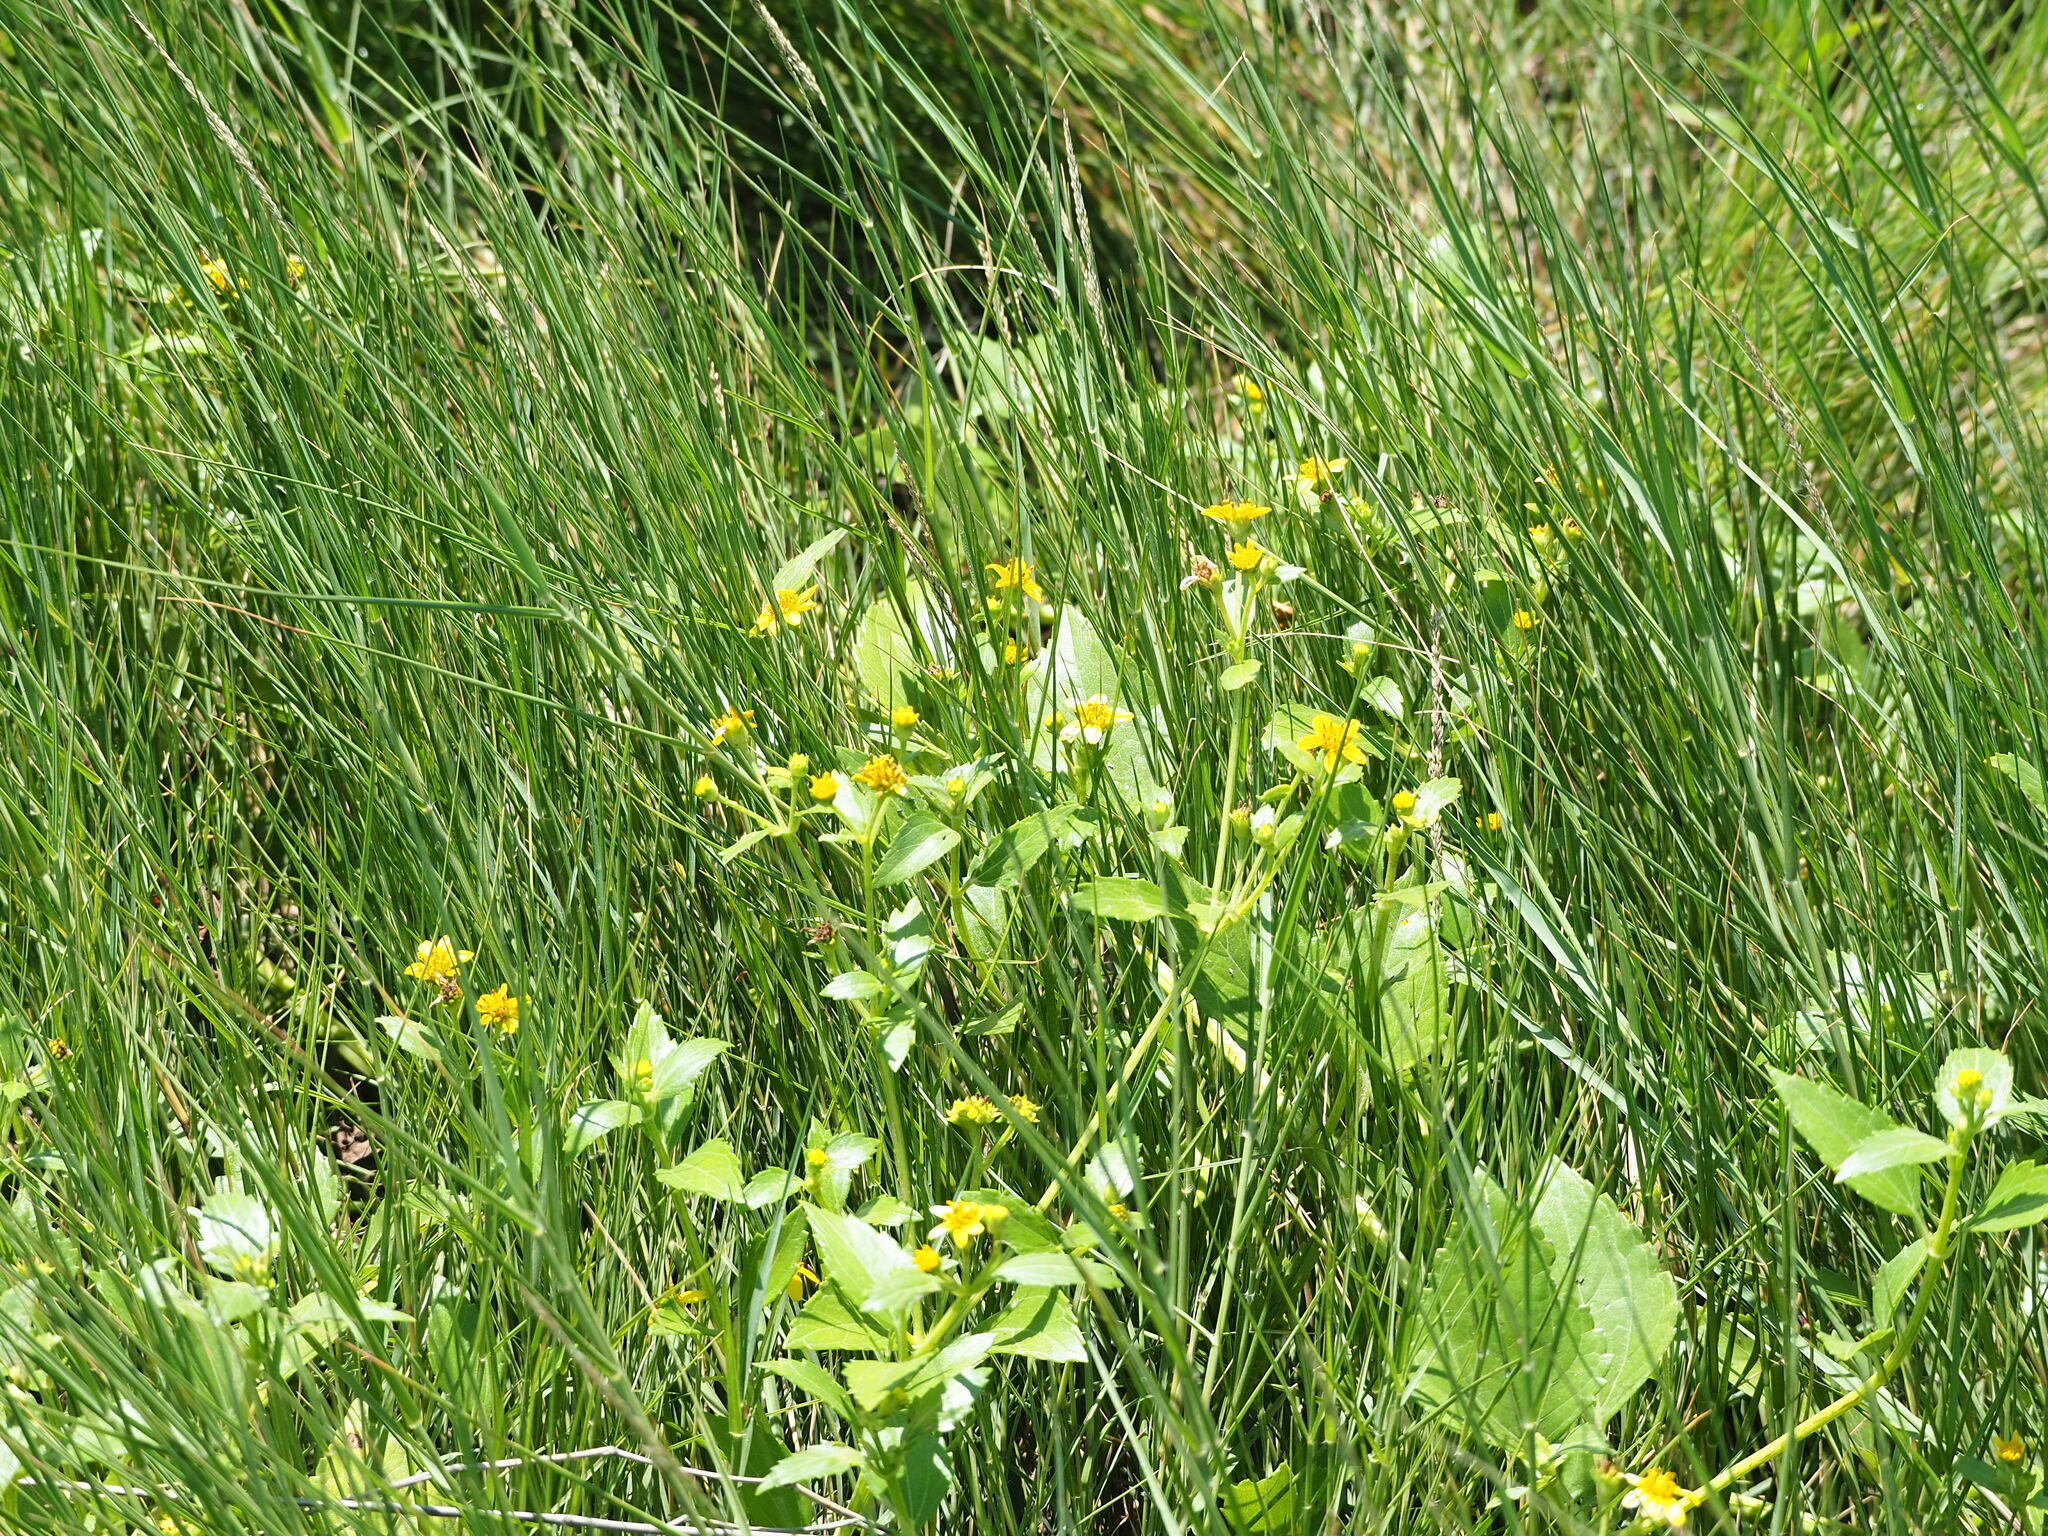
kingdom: Plantae
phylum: Tracheophyta
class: Magnoliopsida
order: Asterales
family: Asteraceae
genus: Wollastonia
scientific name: Wollastonia biflora
